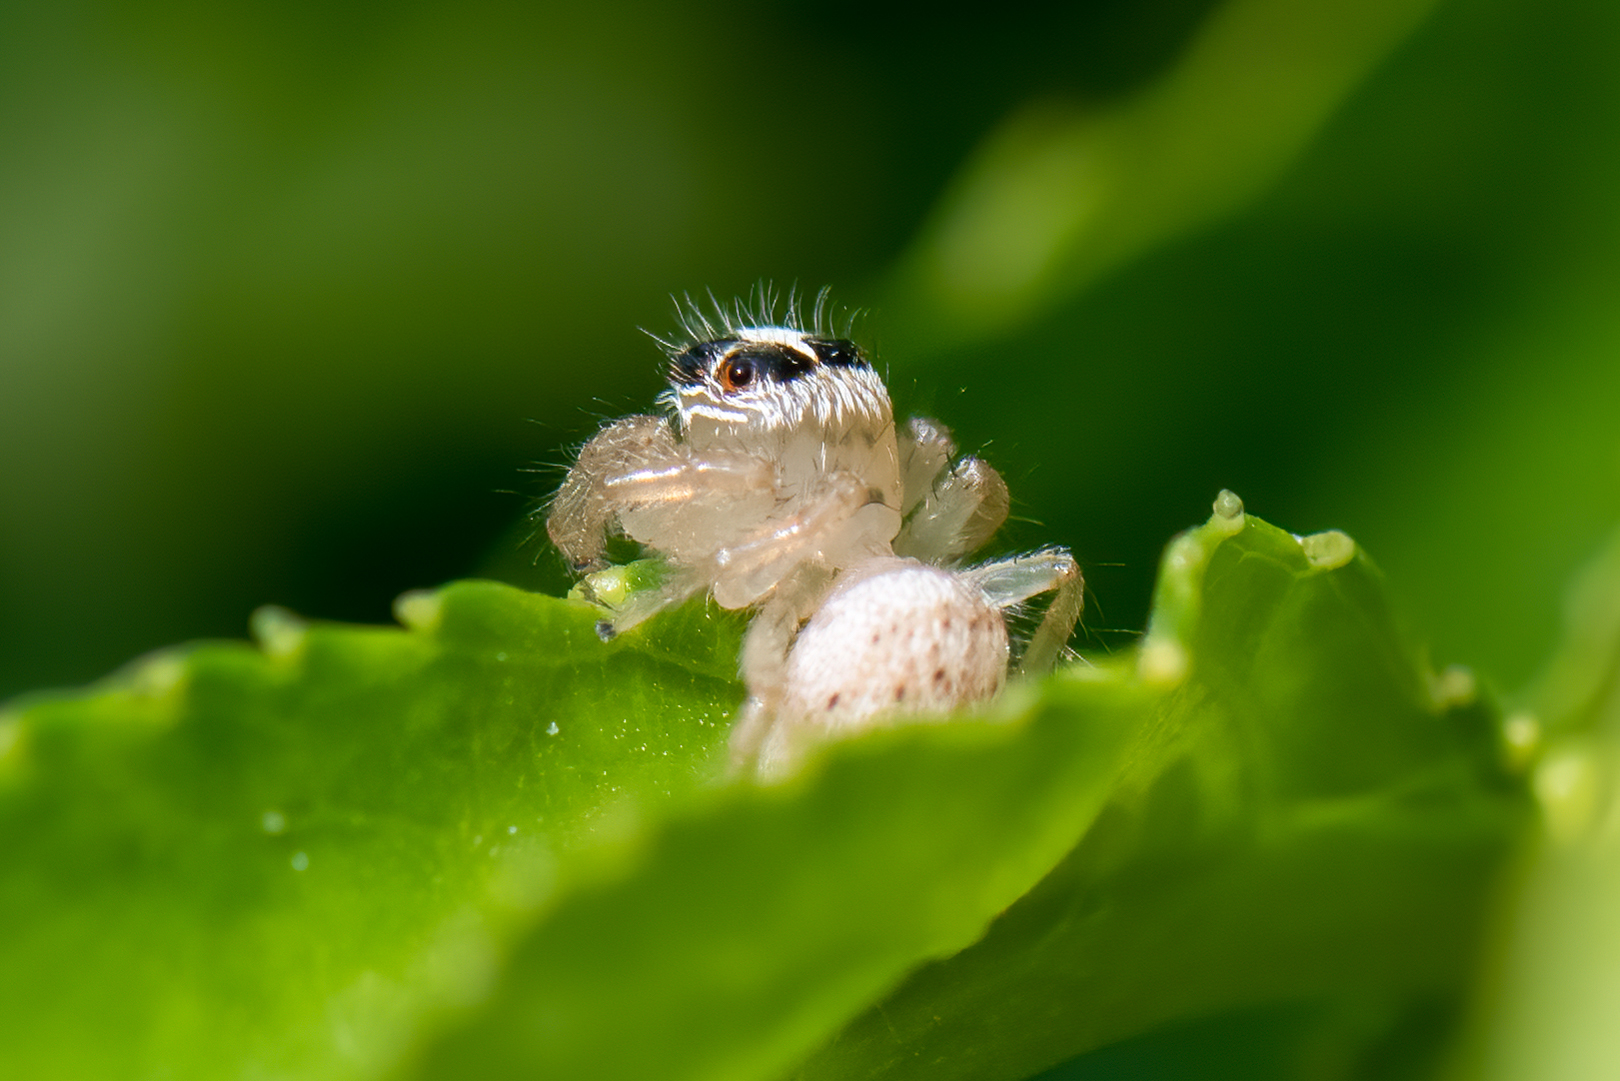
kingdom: Animalia
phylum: Arthropoda
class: Arachnida
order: Araneae
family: Salticidae
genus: Colonus
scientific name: Colonus hesperus
